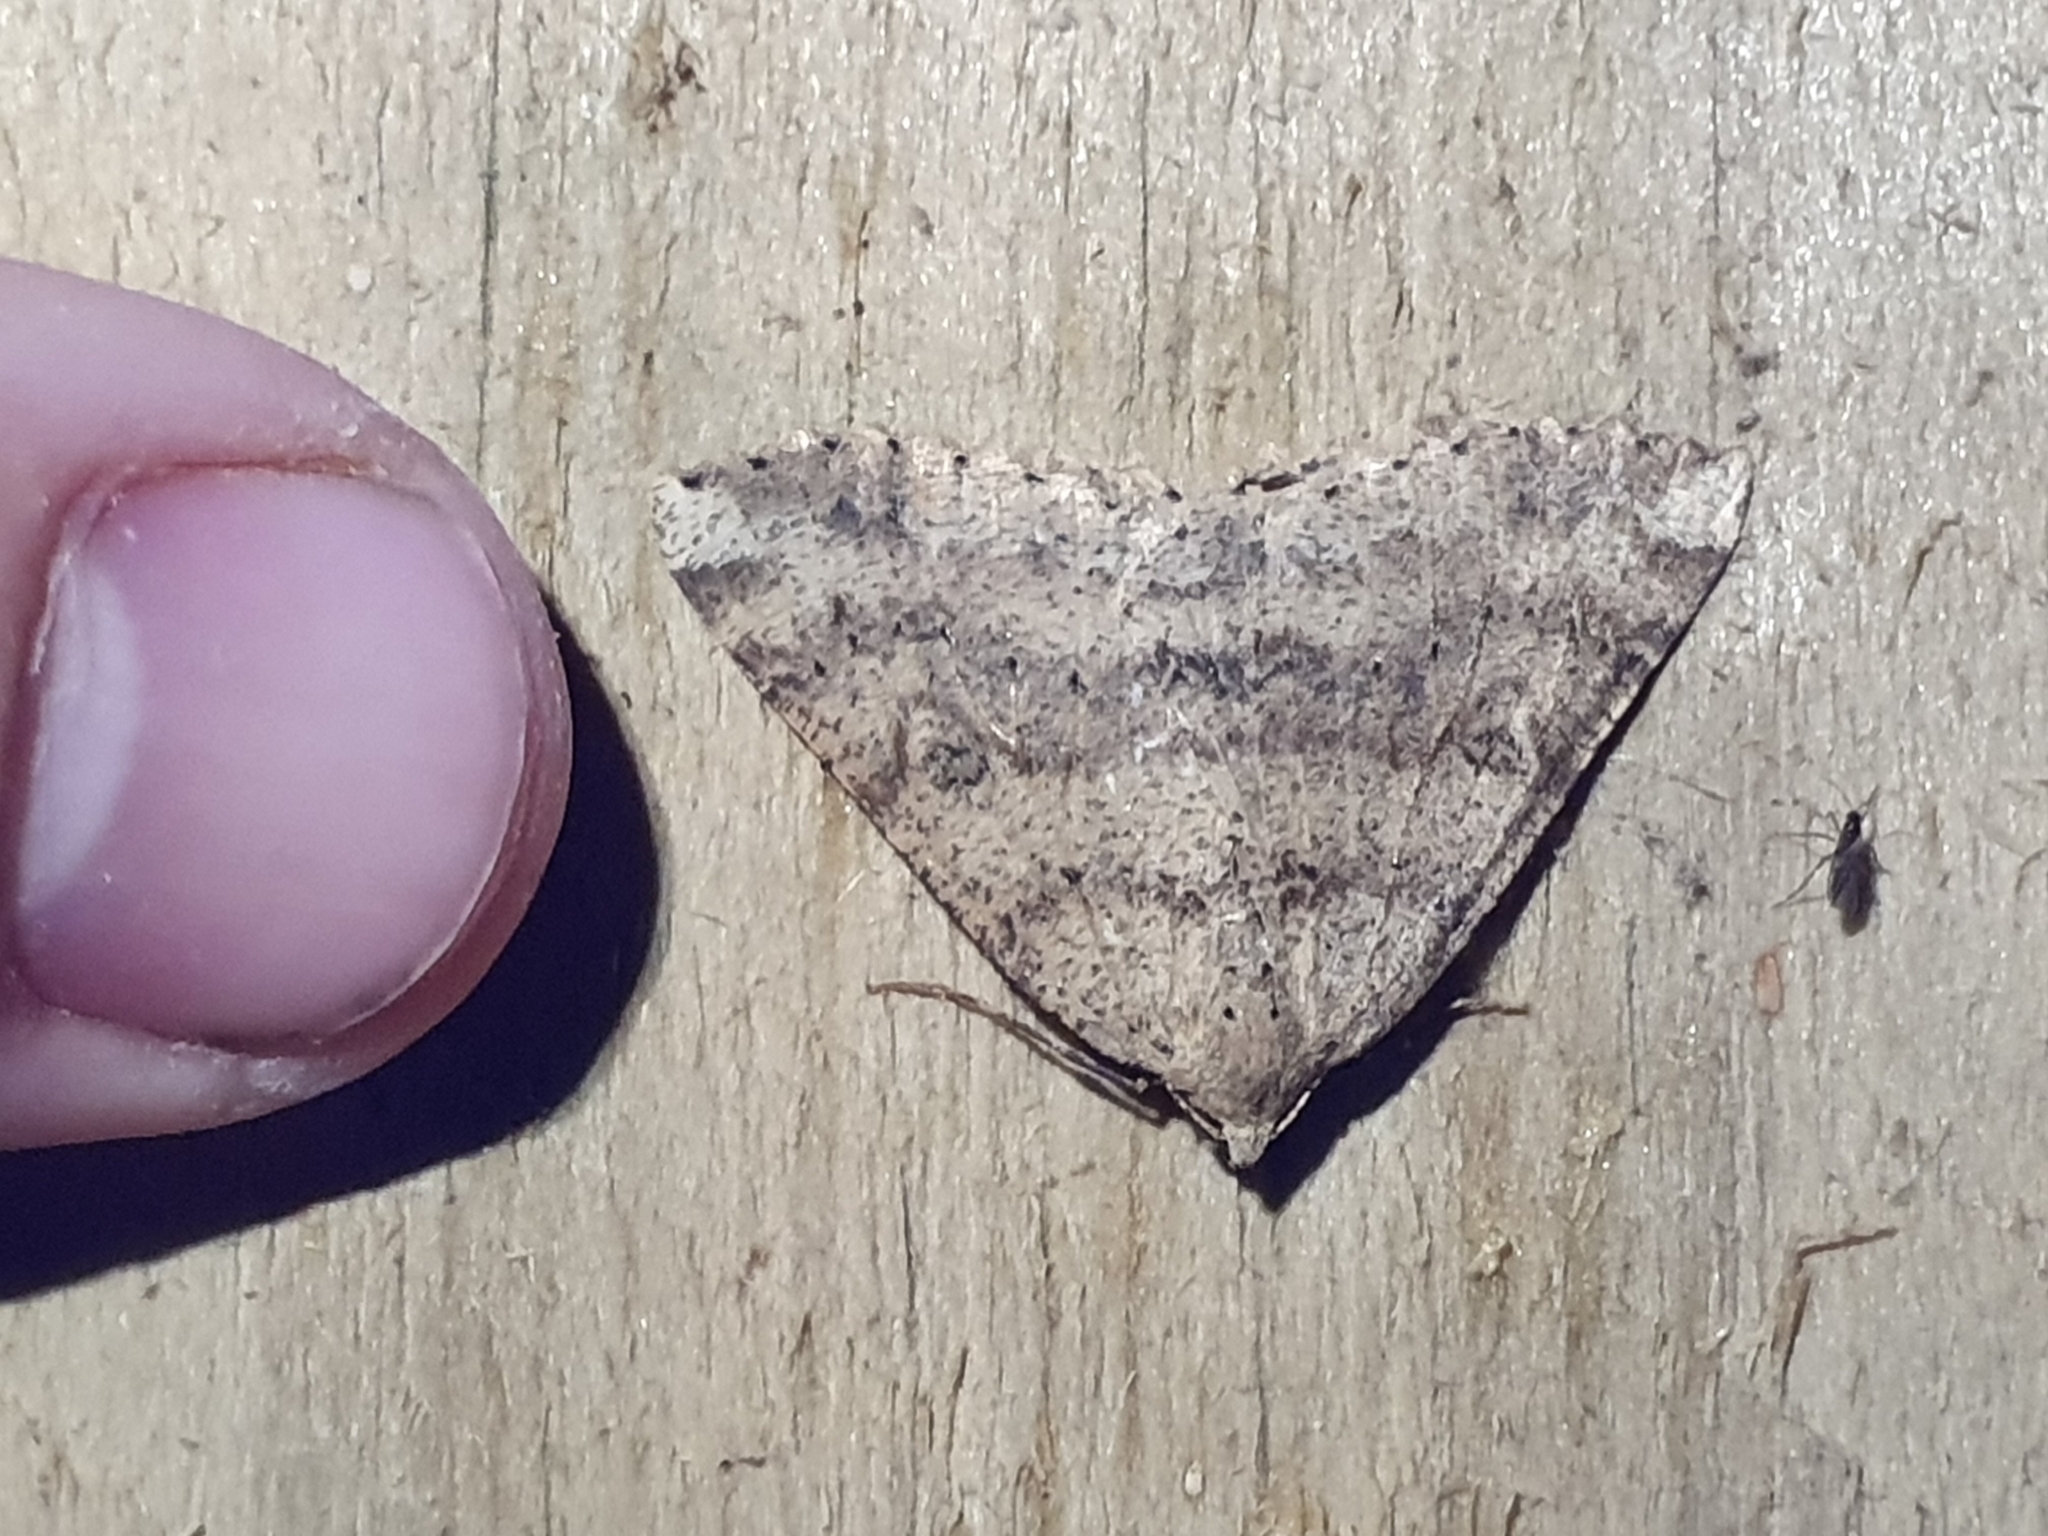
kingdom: Animalia
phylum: Arthropoda
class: Insecta
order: Lepidoptera
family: Geometridae
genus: Cleora
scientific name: Cleora scriptaria
